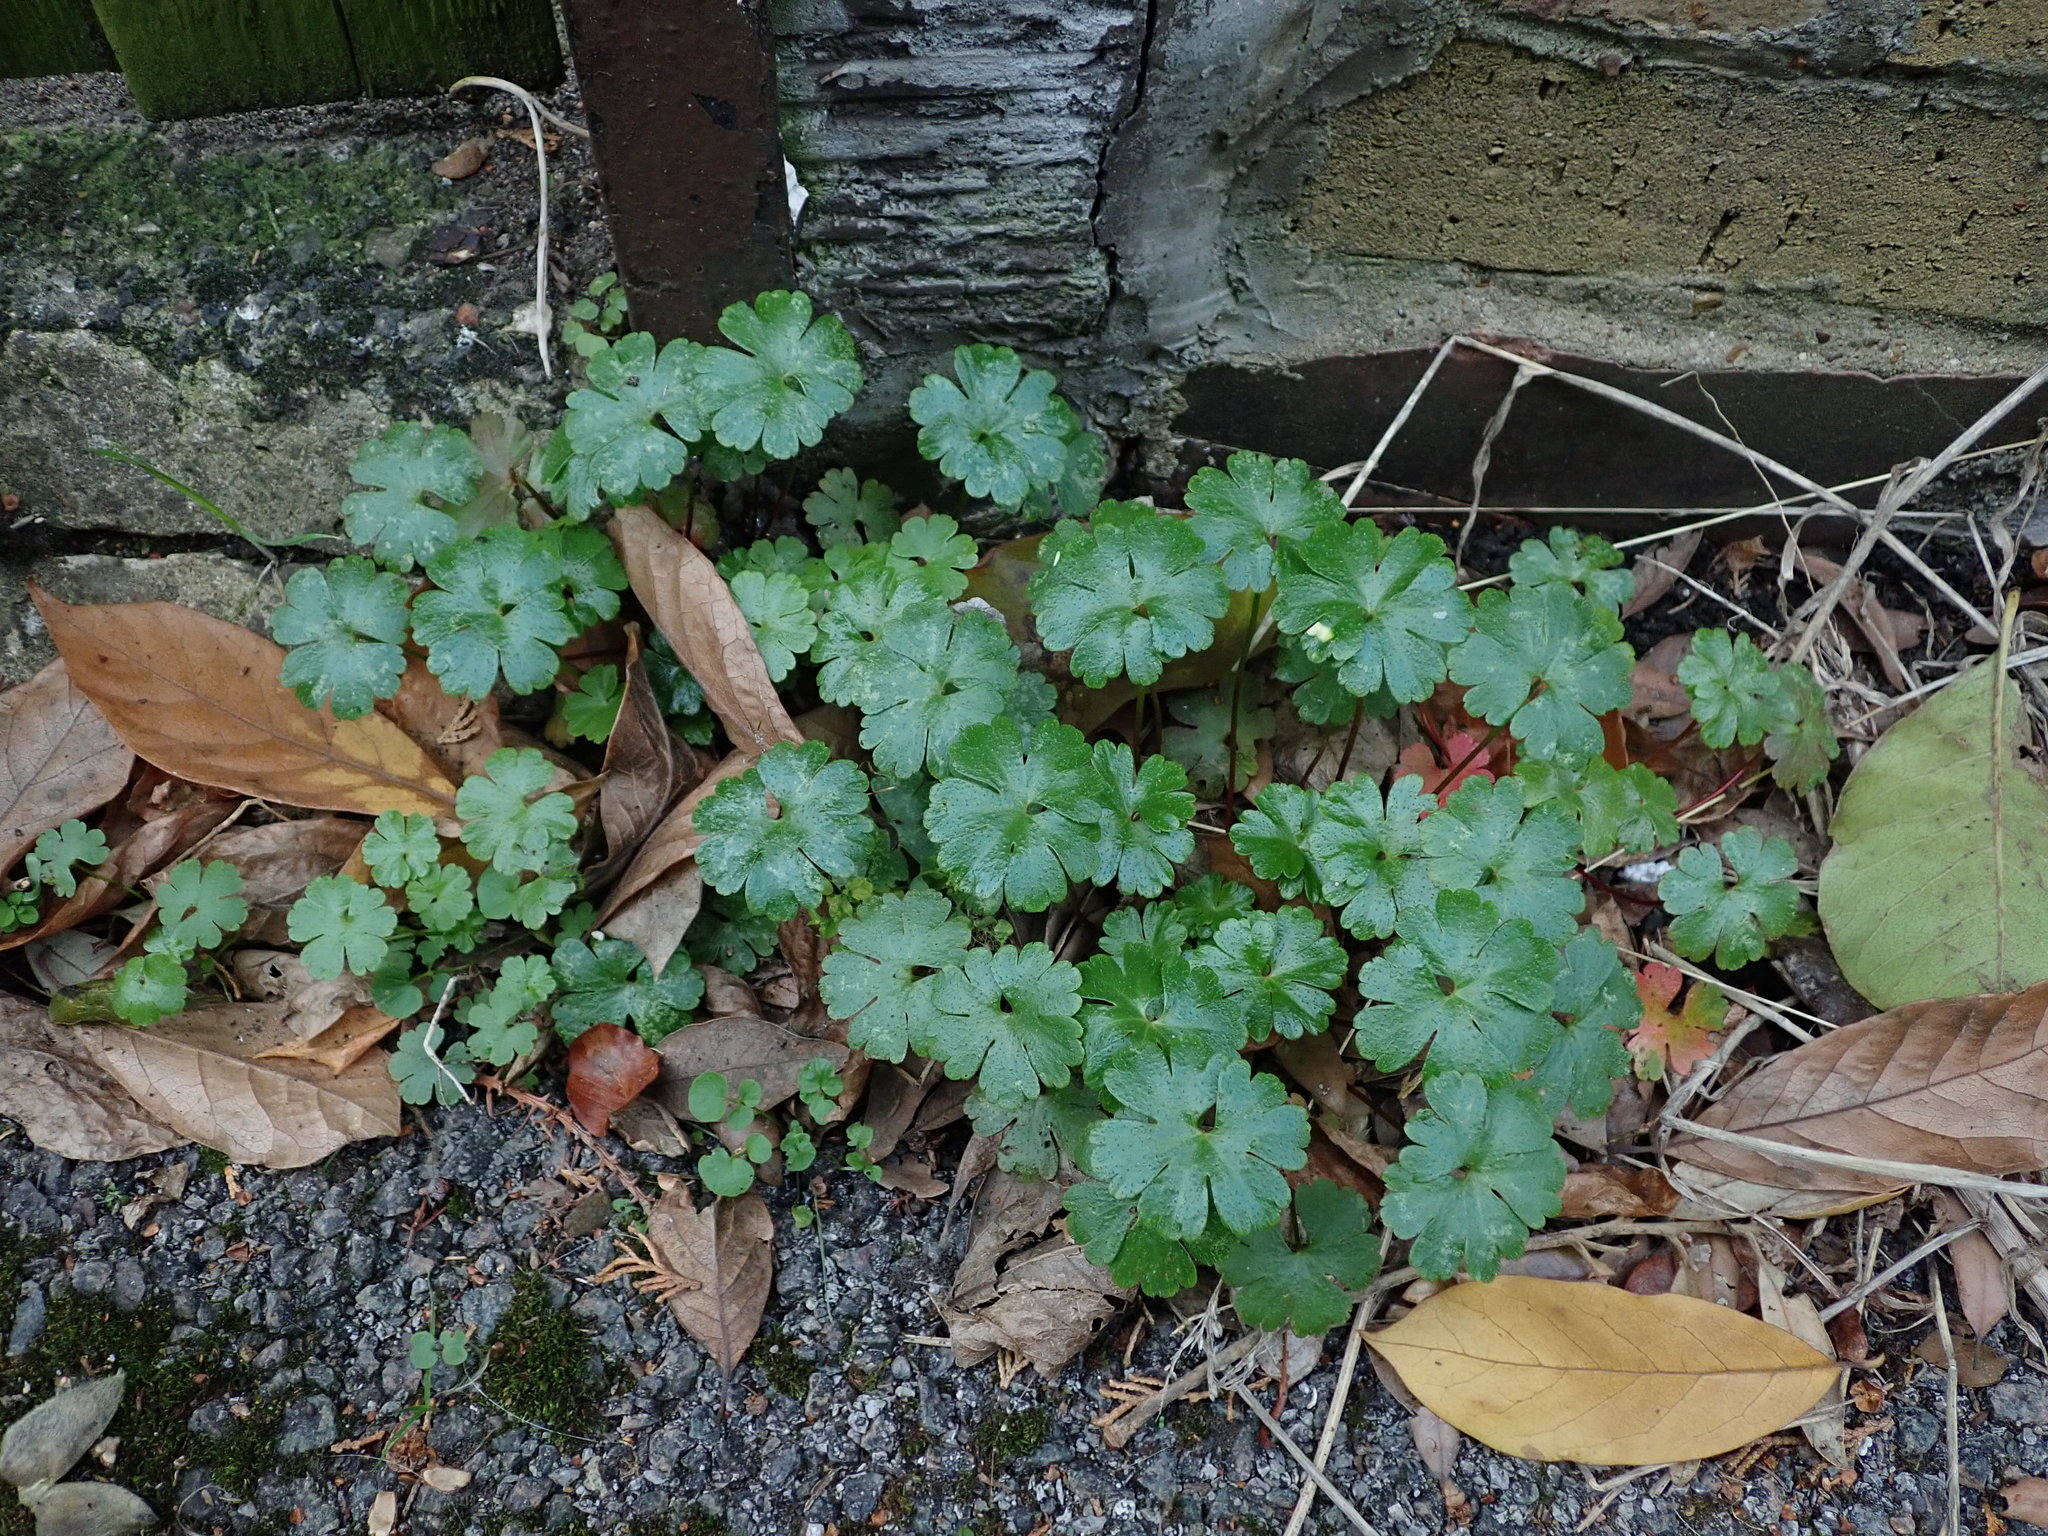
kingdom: Plantae
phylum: Tracheophyta
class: Magnoliopsida
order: Geraniales
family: Geraniaceae
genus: Geranium
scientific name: Geranium lucidum
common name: Shining crane's-bill
